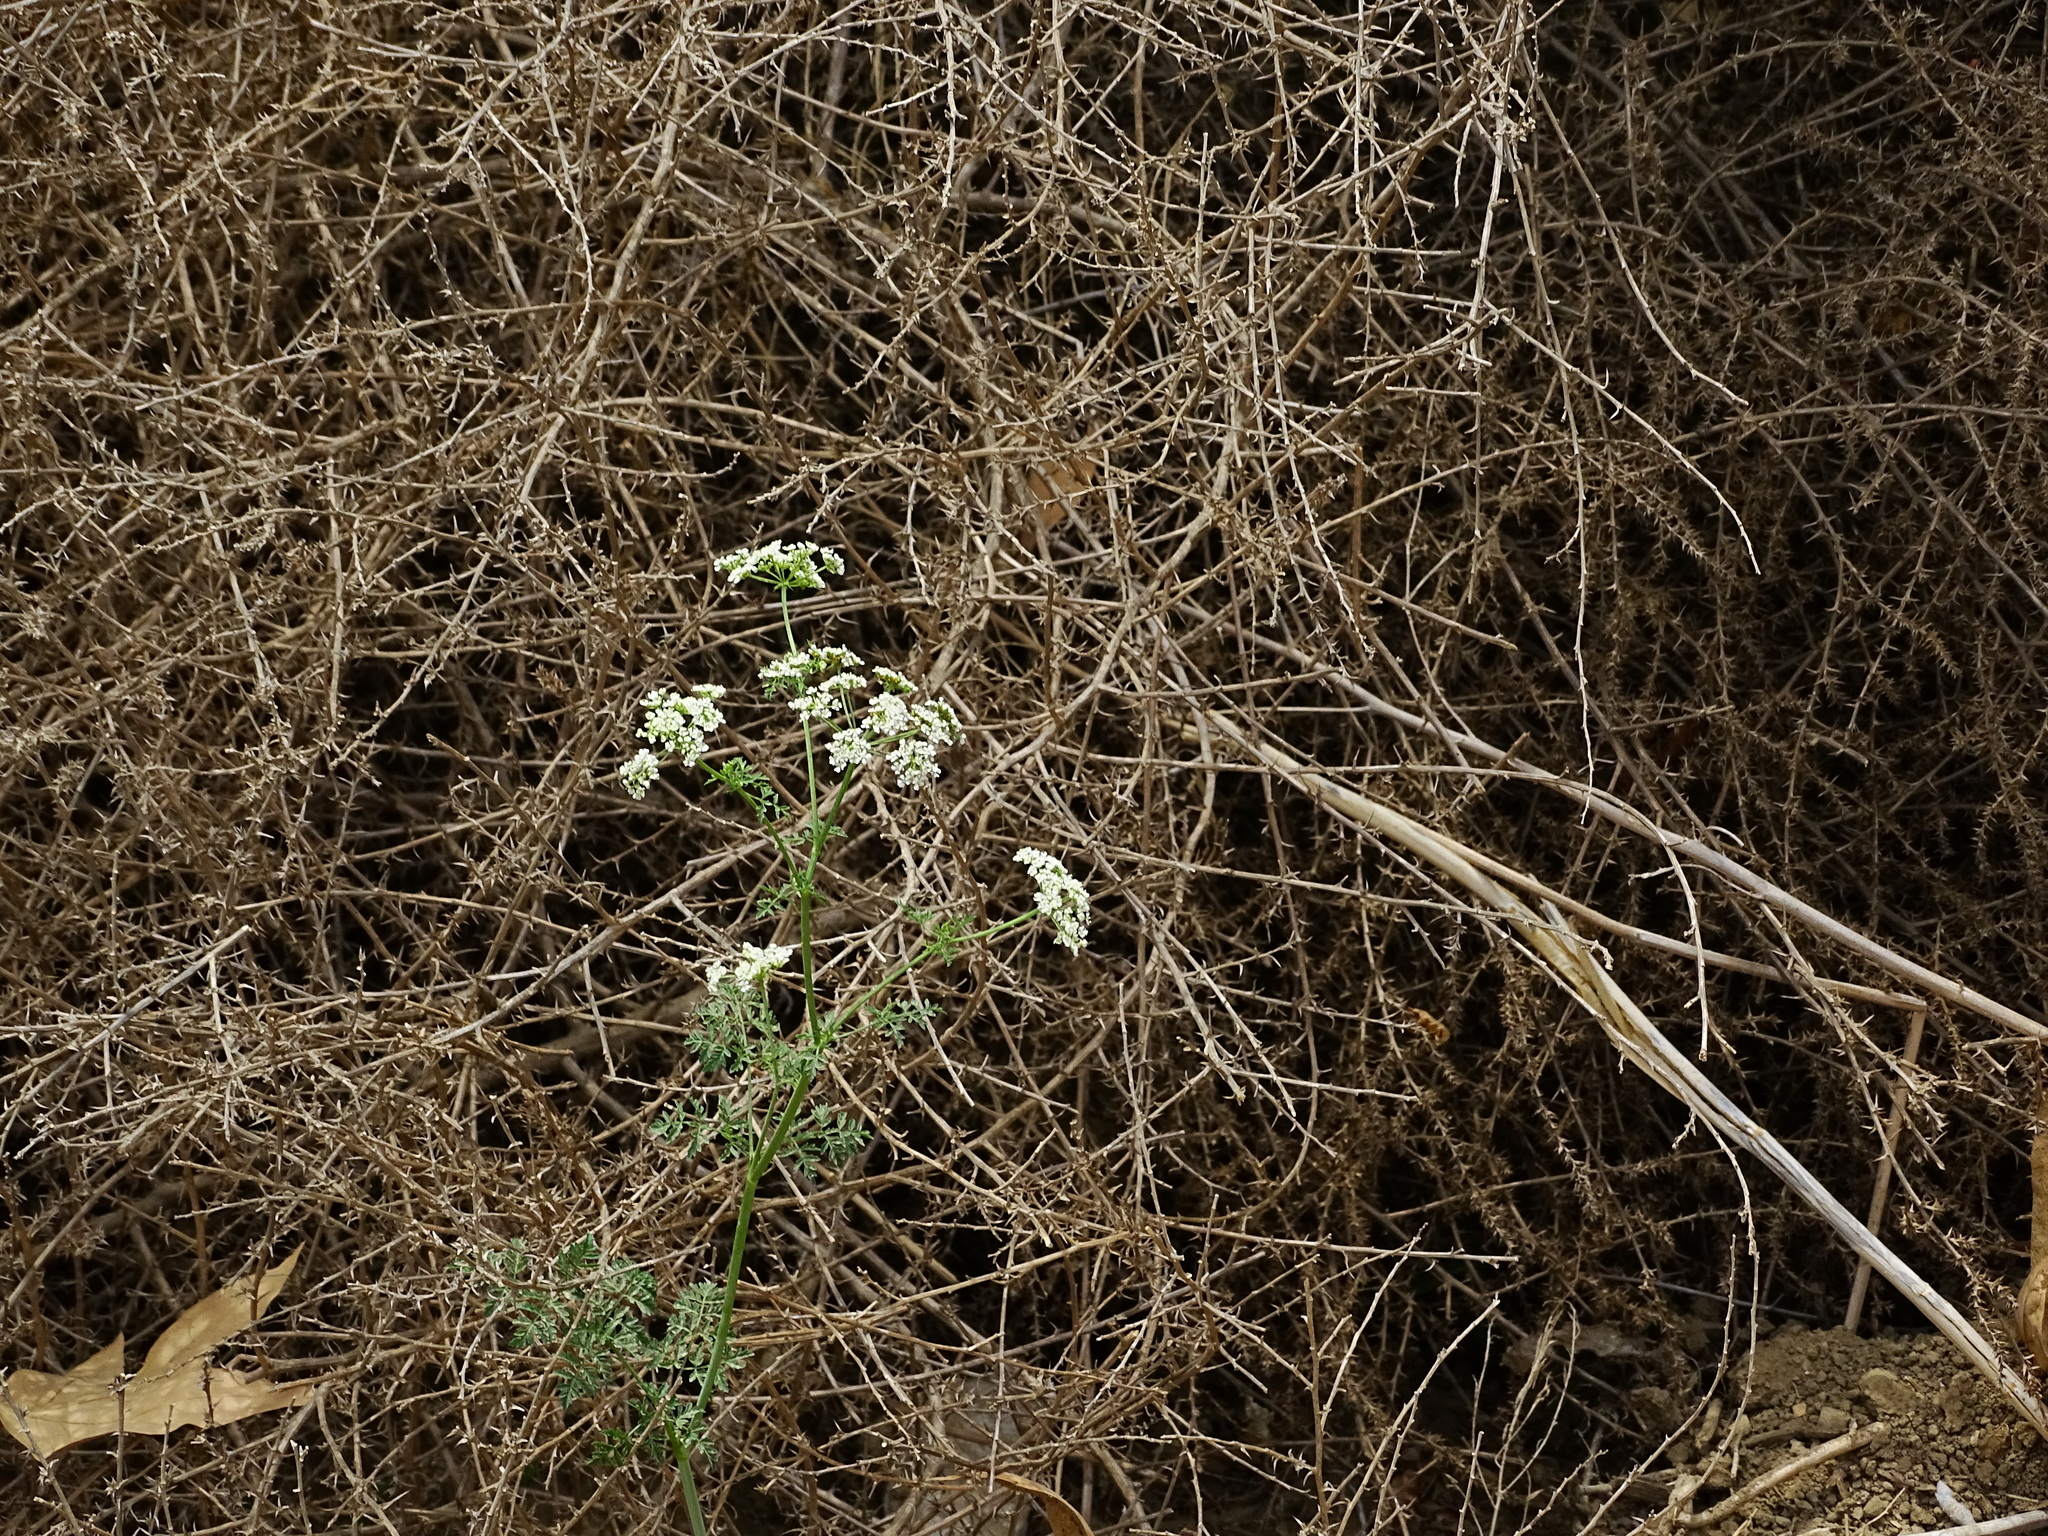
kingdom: Plantae
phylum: Tracheophyta
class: Magnoliopsida
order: Apiales
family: Apiaceae
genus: Conium
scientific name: Conium maculatum
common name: Hemlock
